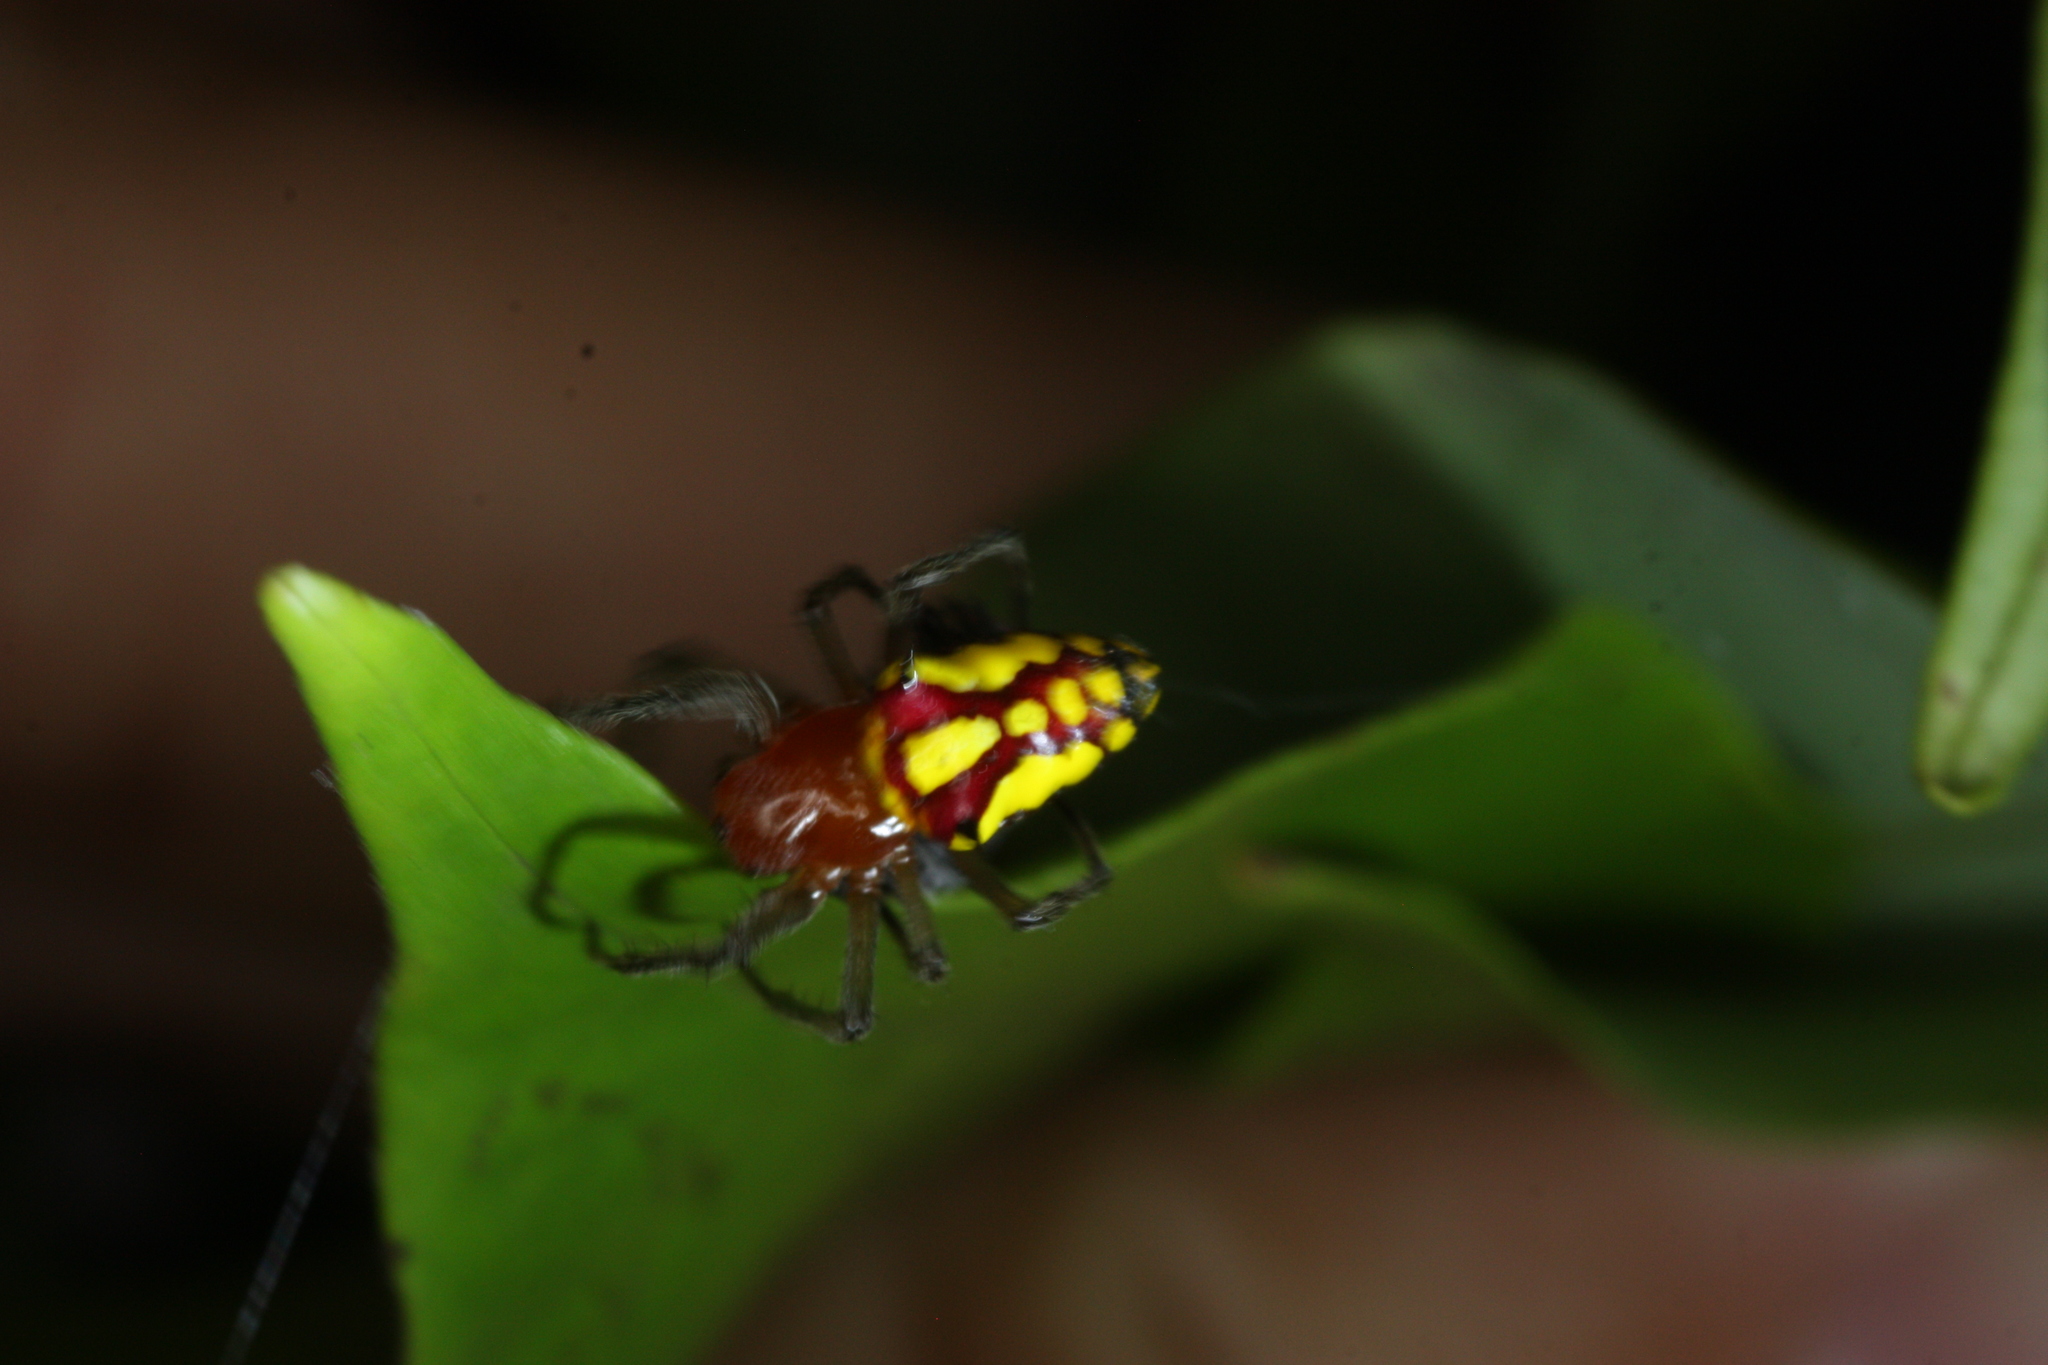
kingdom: Animalia
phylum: Arthropoda
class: Arachnida
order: Araneae
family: Araneidae
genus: Alpaida
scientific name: Alpaida bicornuta
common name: Orb weavers
